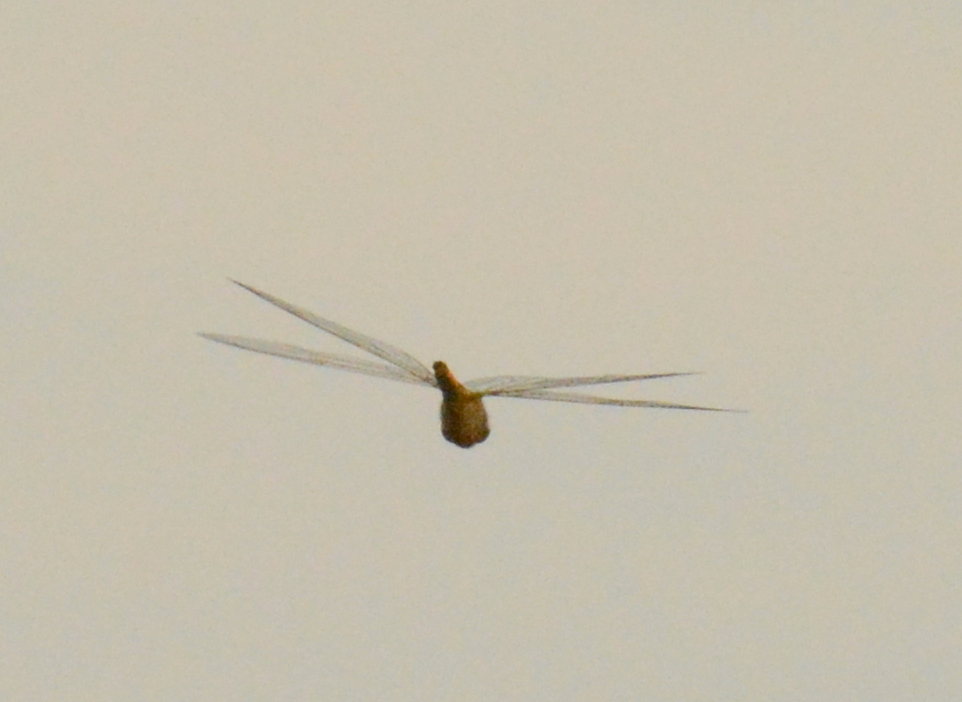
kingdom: Animalia
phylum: Arthropoda
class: Insecta
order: Odonata
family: Libellulidae
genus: Pantala
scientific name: Pantala flavescens
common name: Wandering glider
